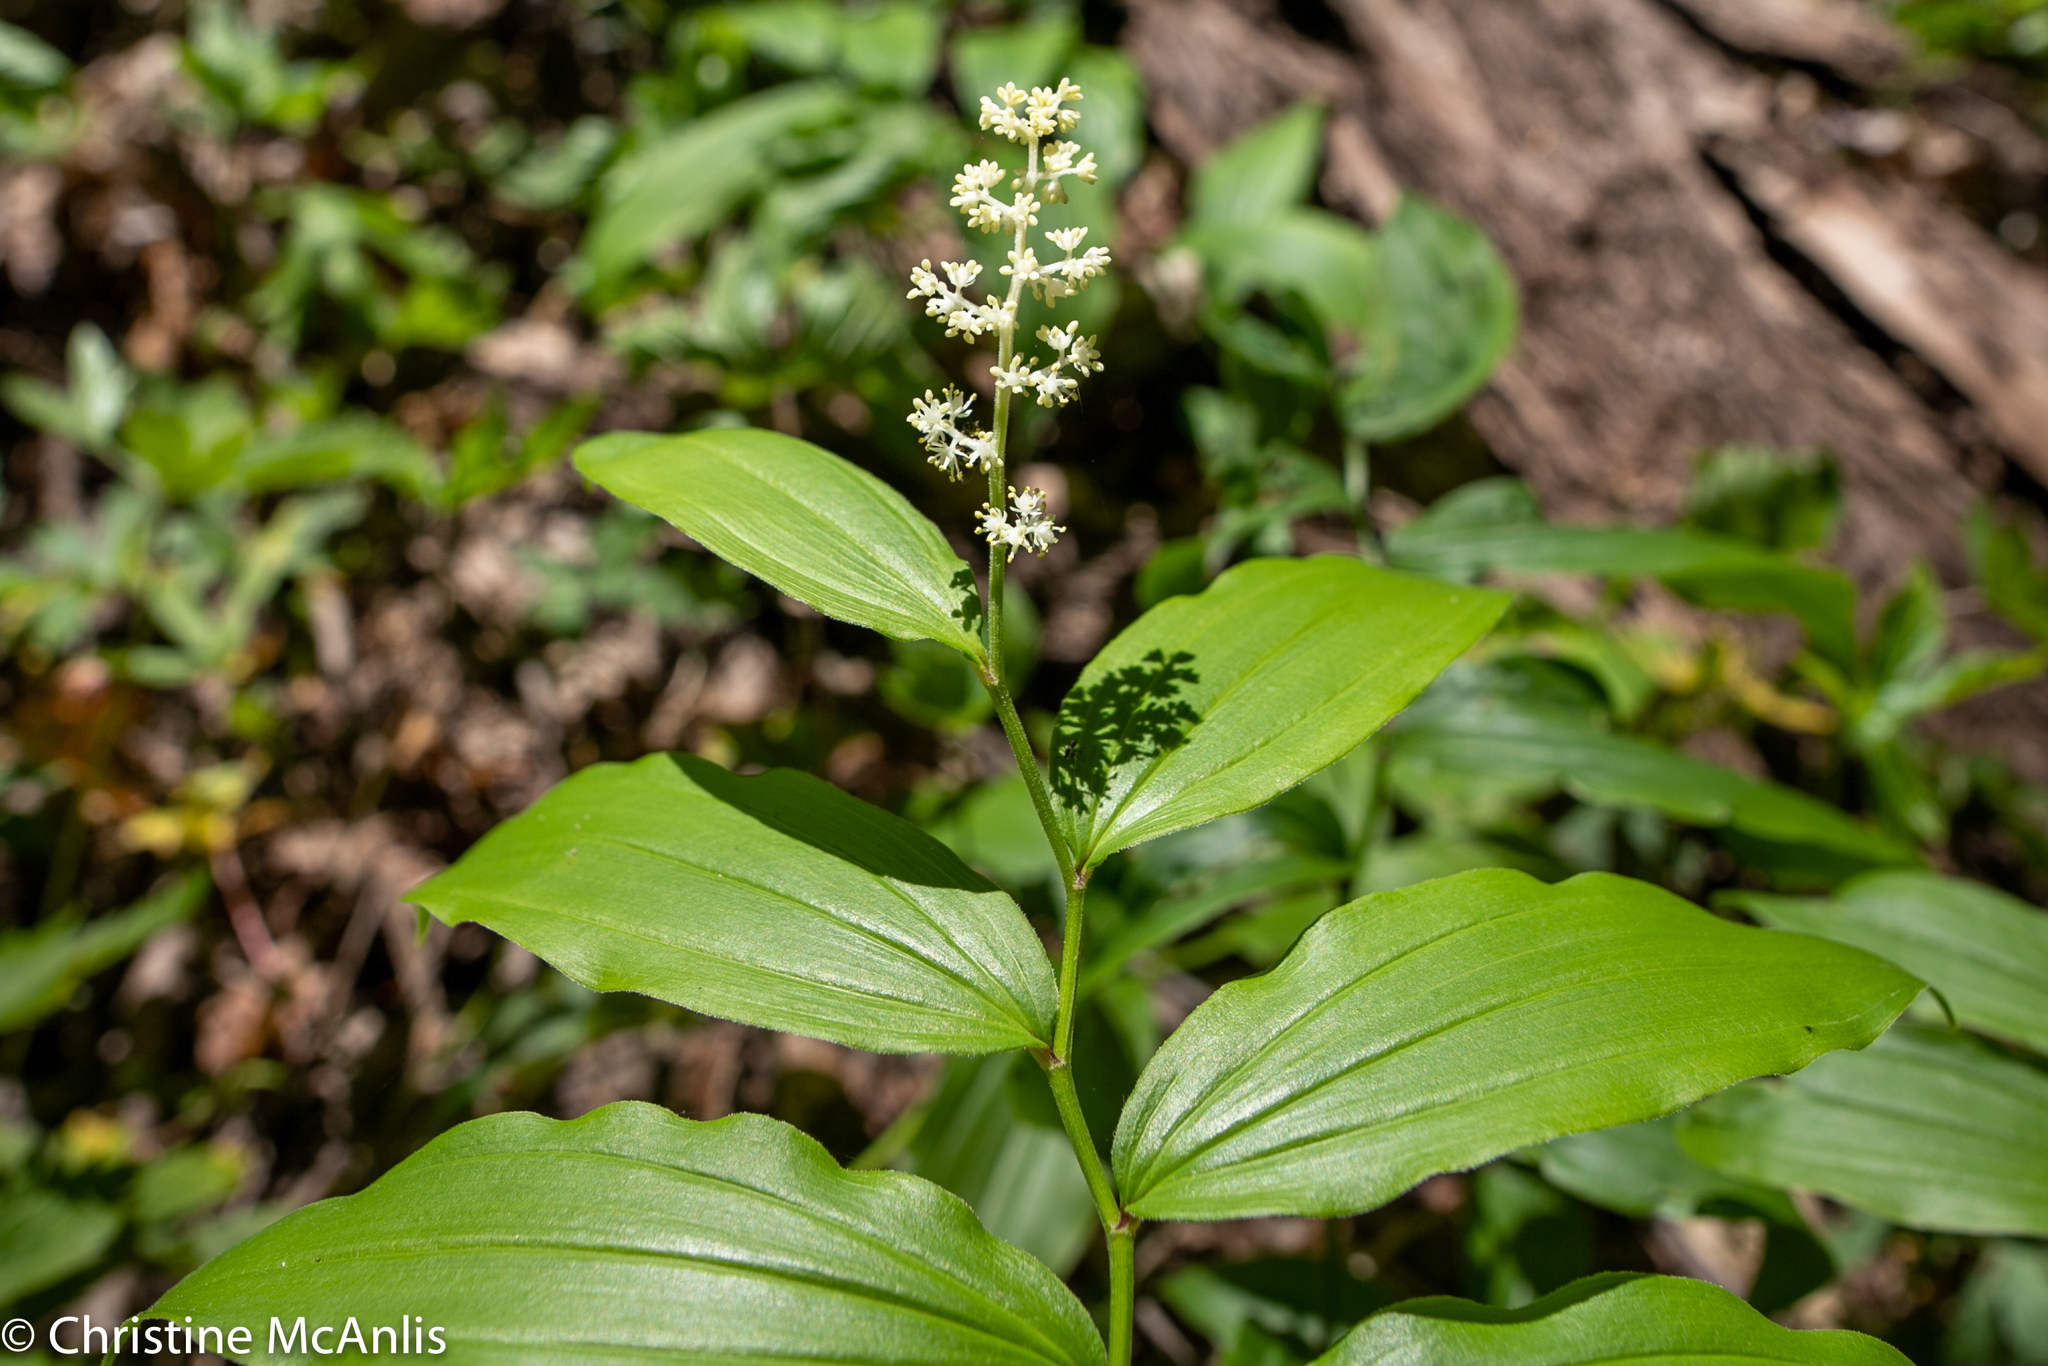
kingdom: Plantae
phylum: Tracheophyta
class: Liliopsida
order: Asparagales
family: Asparagaceae
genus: Maianthemum
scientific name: Maianthemum racemosum
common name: False spikenard
